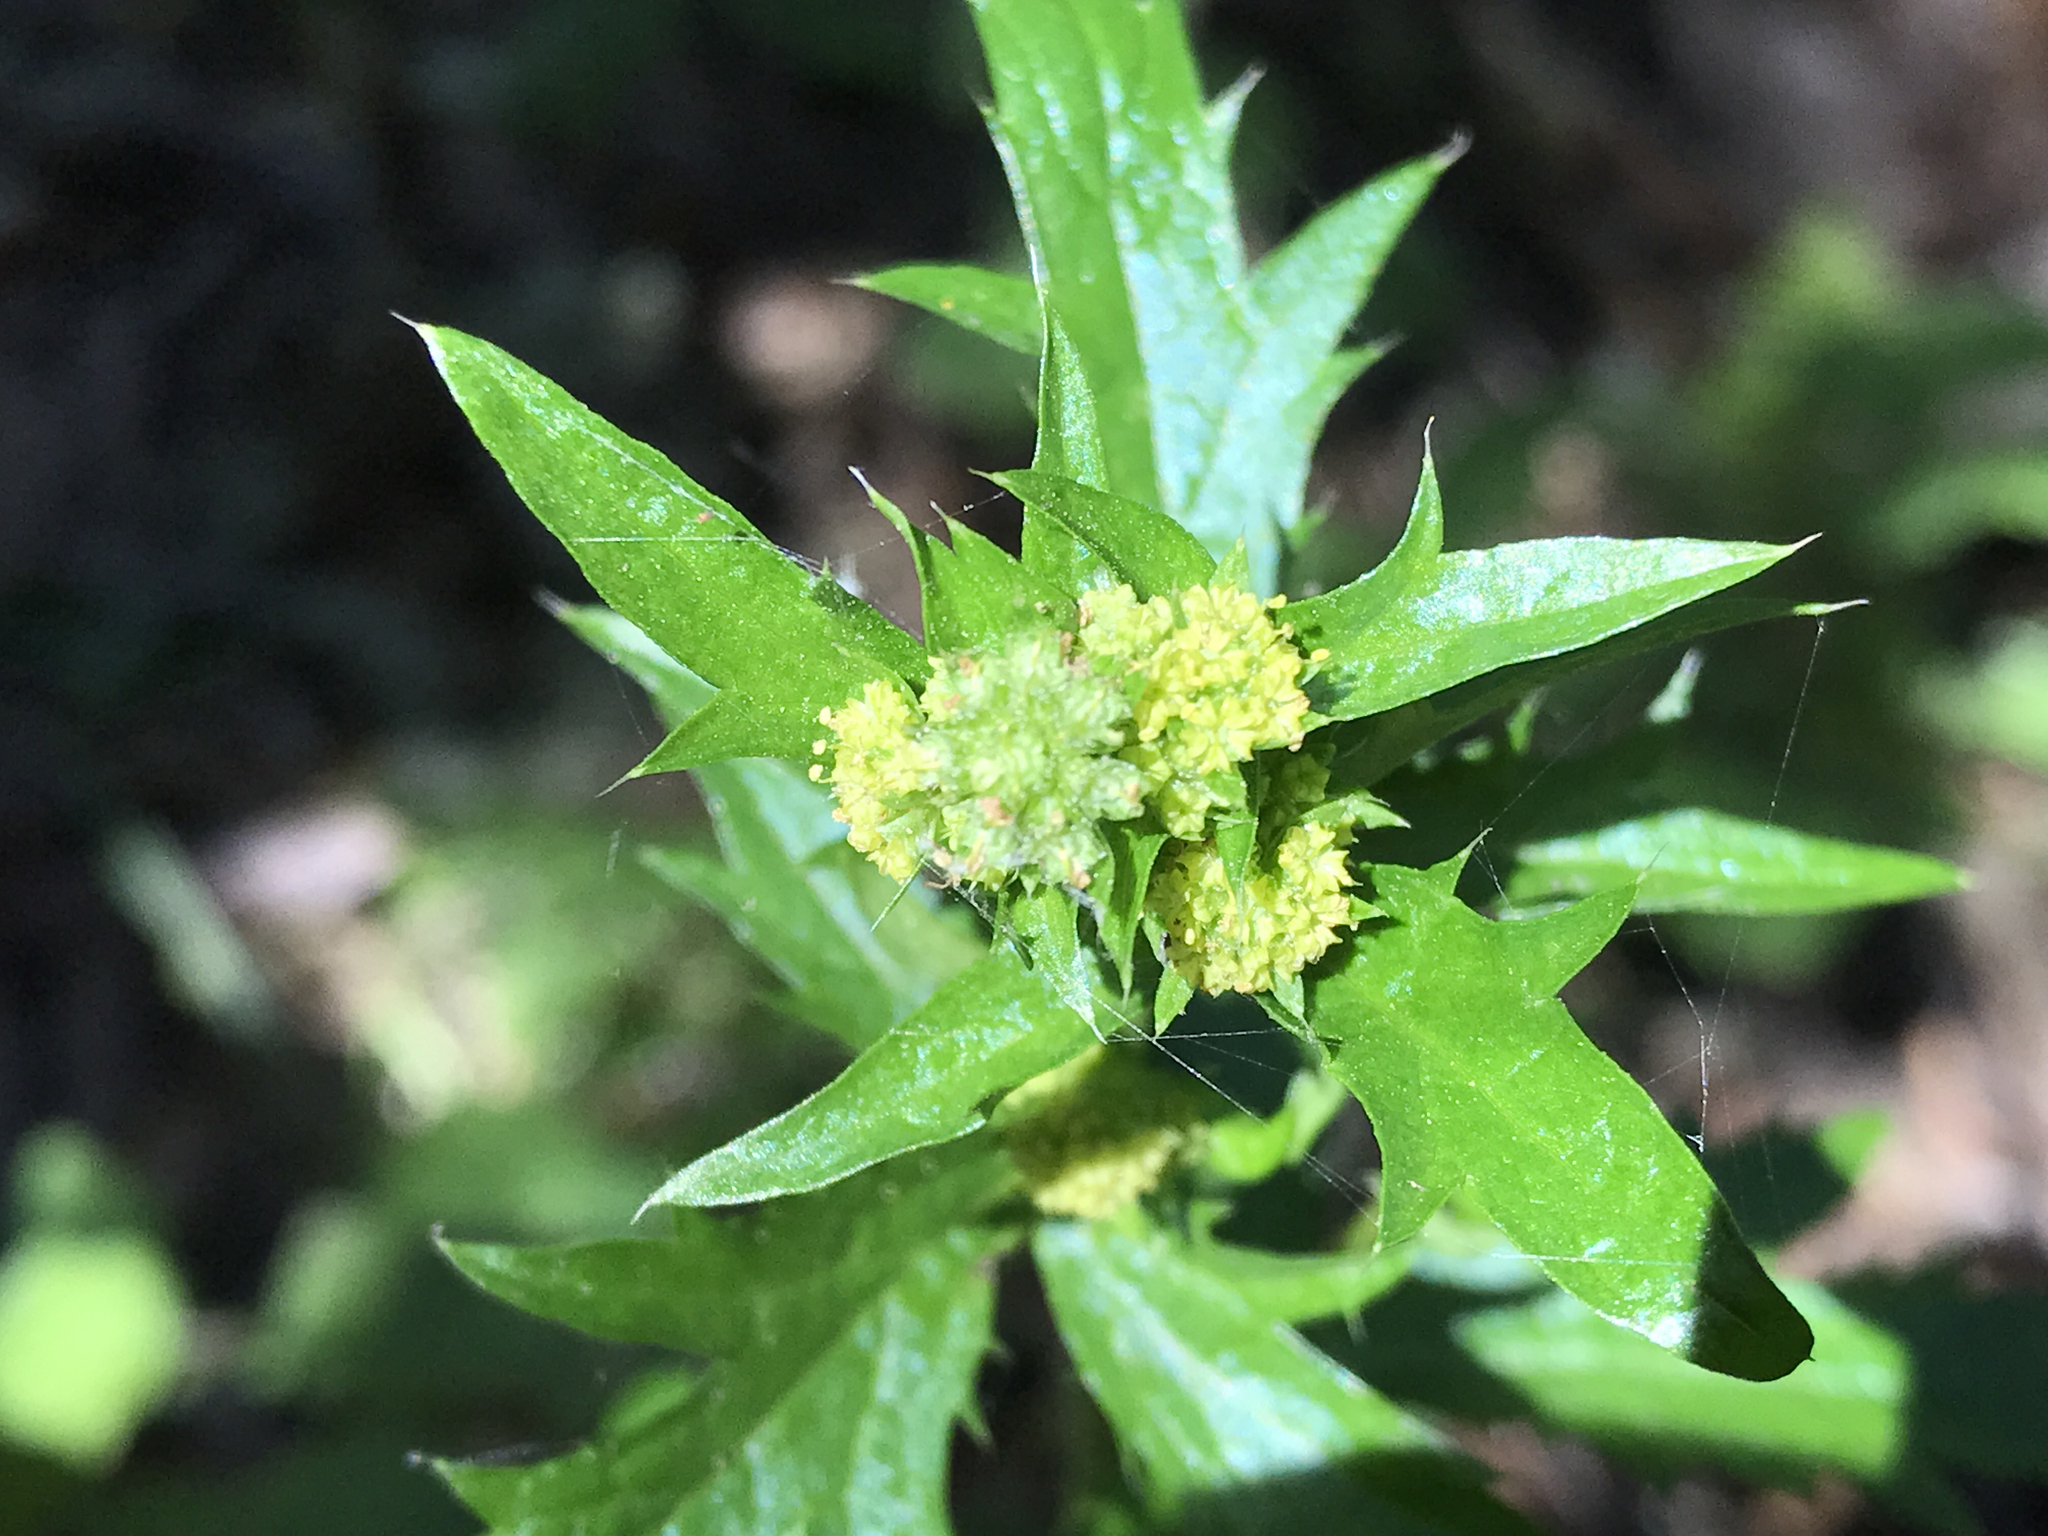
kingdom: Plantae
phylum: Tracheophyta
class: Magnoliopsida
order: Apiales
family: Apiaceae
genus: Sanicula
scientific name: Sanicula crassicaulis
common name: Western snakeroot
